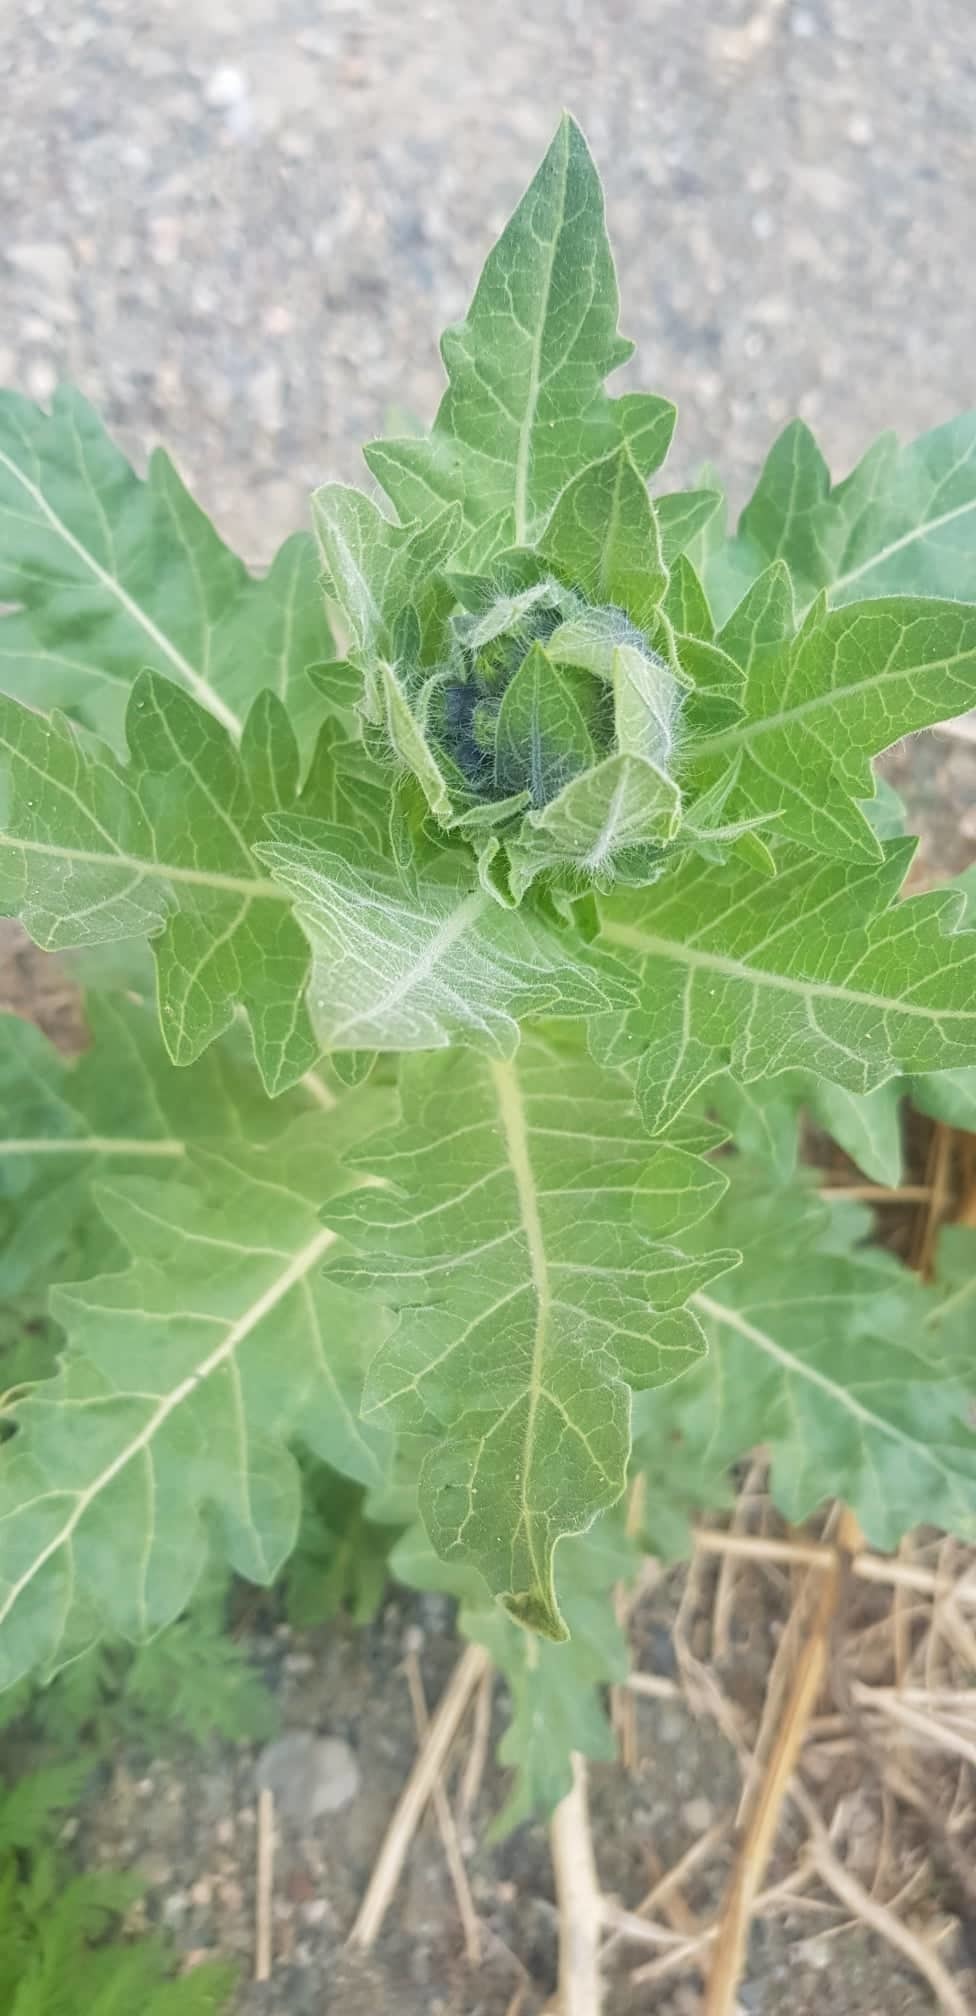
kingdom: Plantae
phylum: Tracheophyta
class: Magnoliopsida
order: Solanales
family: Solanaceae
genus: Hyoscyamus
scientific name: Hyoscyamus niger
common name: Henbane
